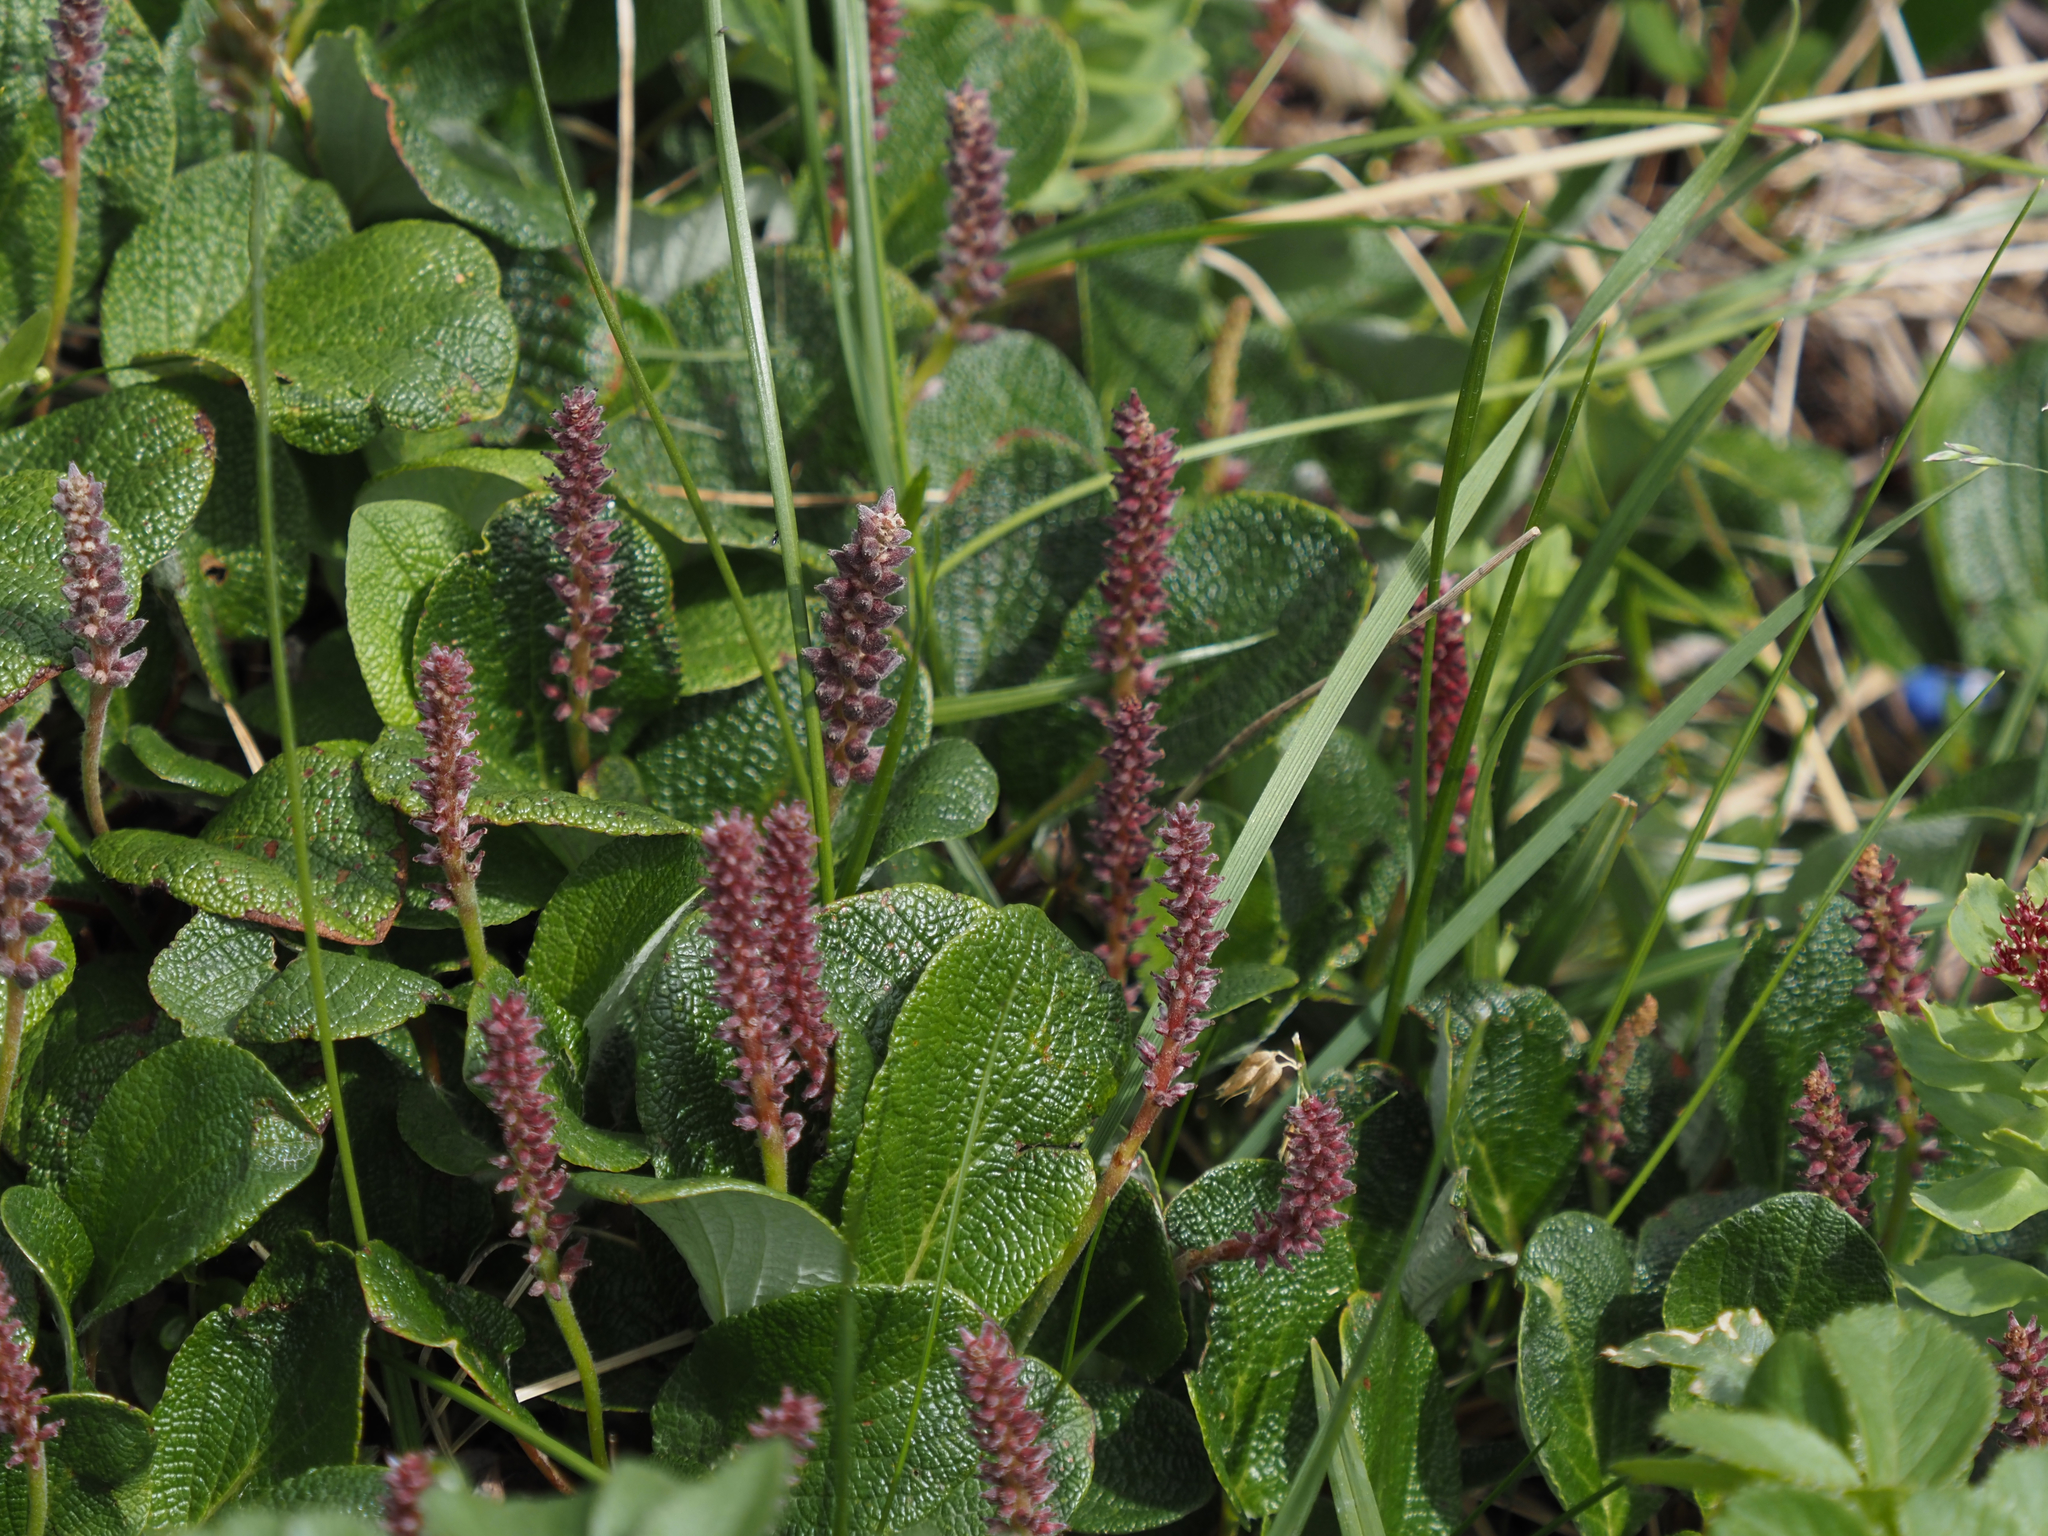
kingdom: Plantae
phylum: Tracheophyta
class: Magnoliopsida
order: Malpighiales
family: Salicaceae
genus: Salix
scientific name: Salix reticulata
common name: Net-leaved willow
